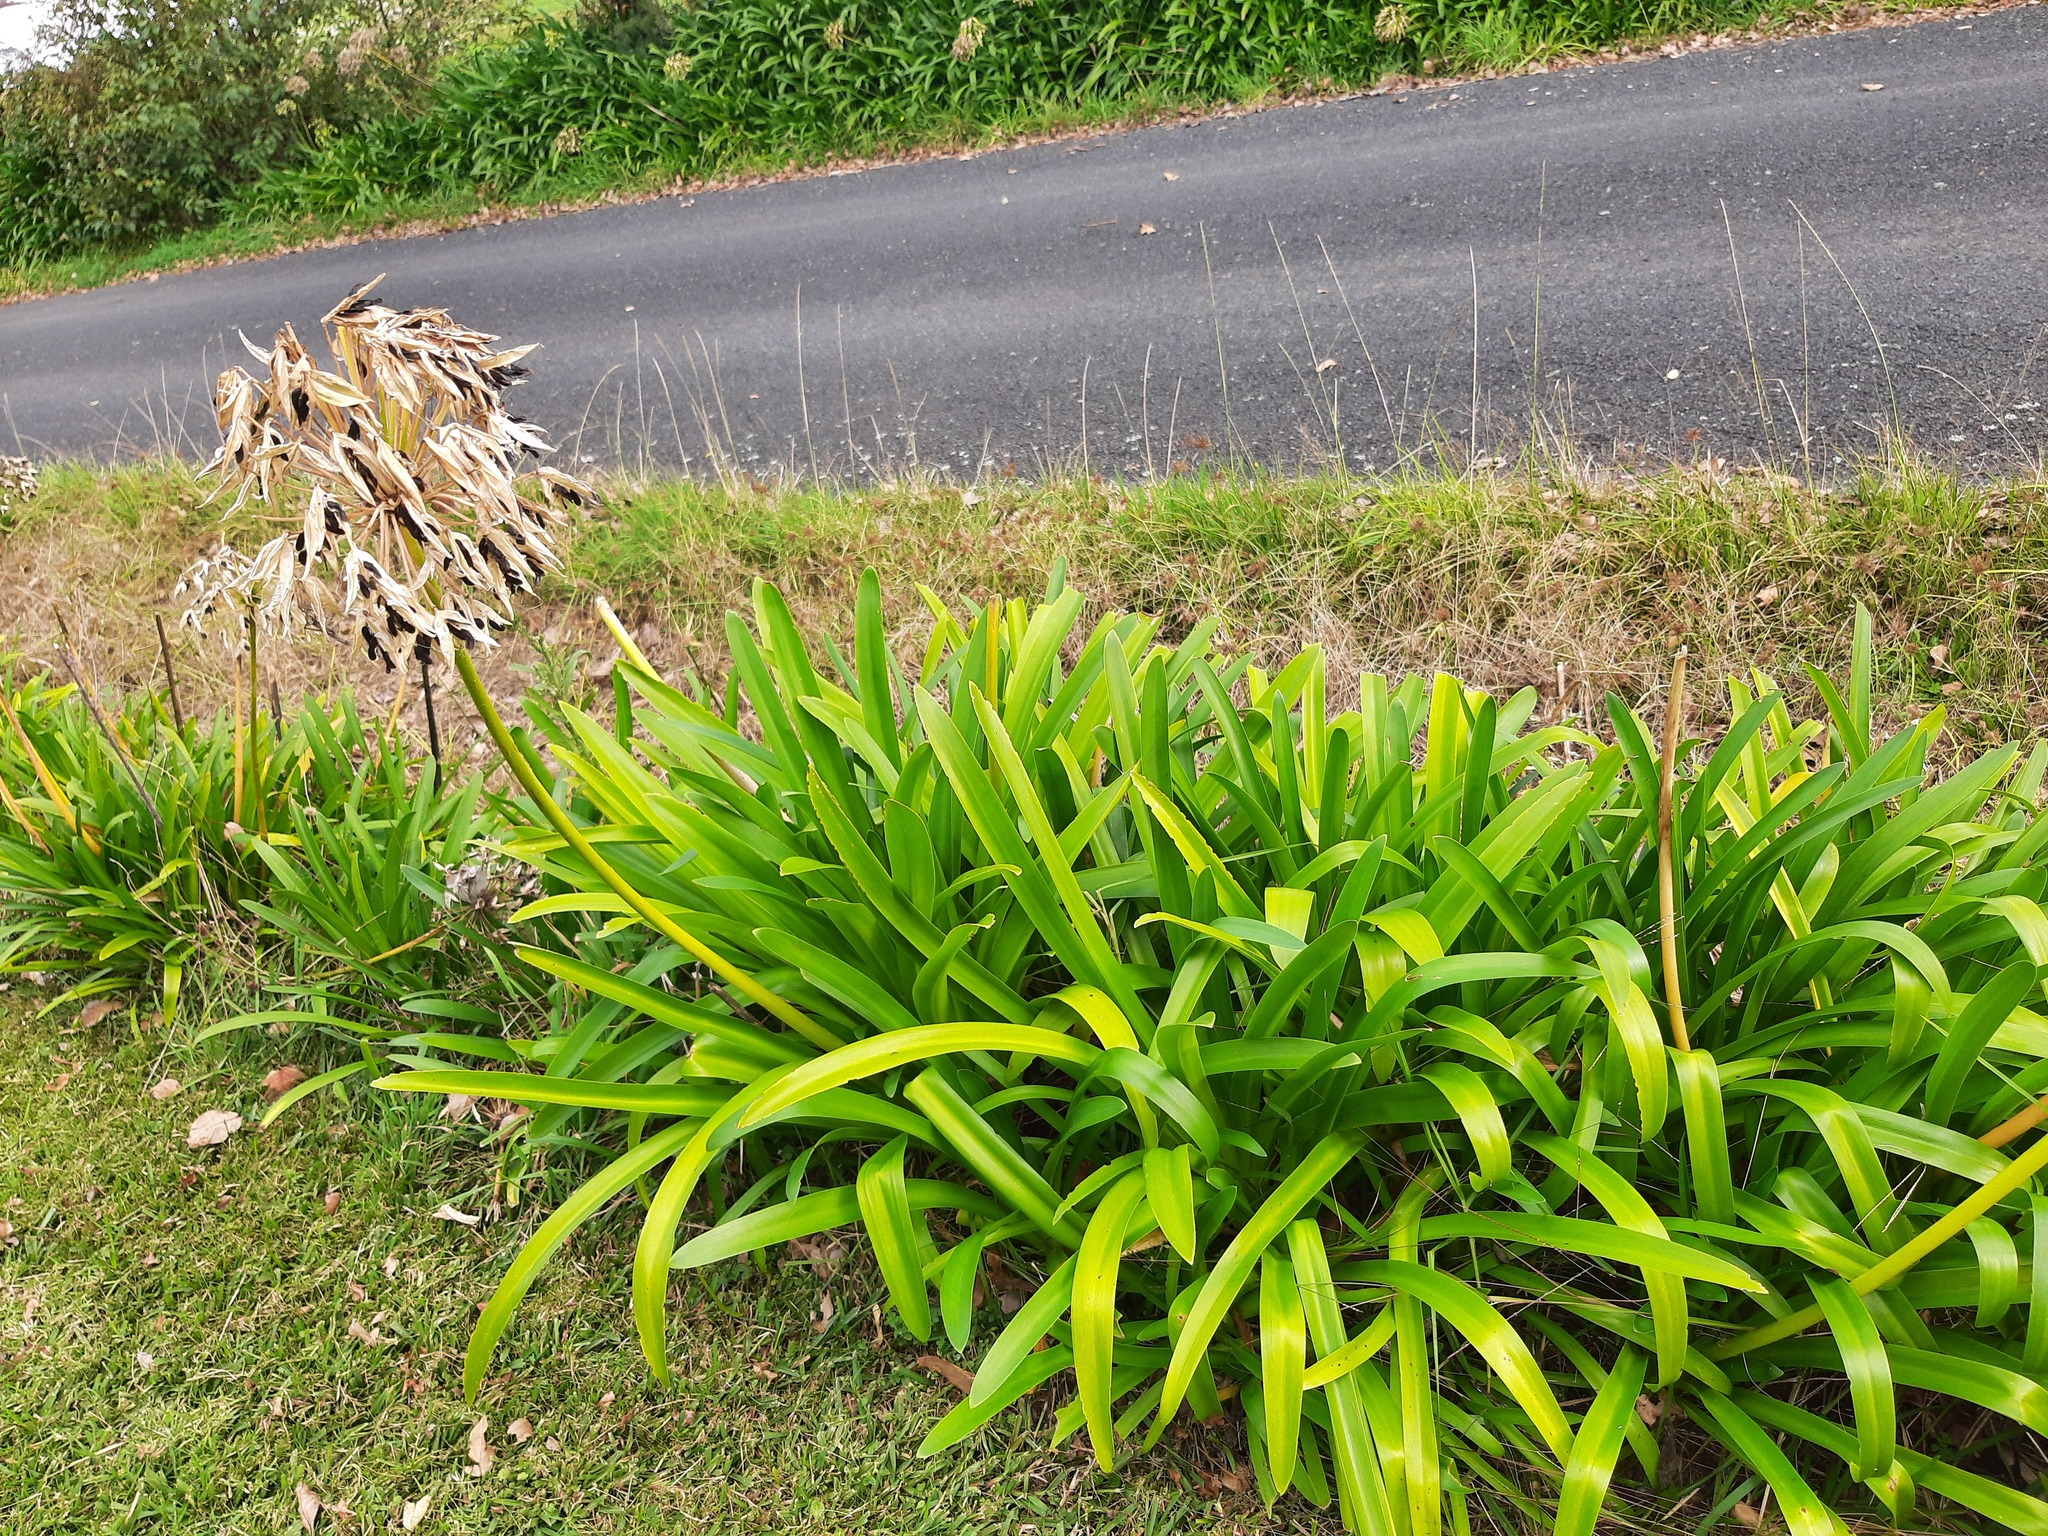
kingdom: Plantae
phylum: Tracheophyta
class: Liliopsida
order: Asparagales
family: Amaryllidaceae
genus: Agapanthus
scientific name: Agapanthus praecox
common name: African-lily
